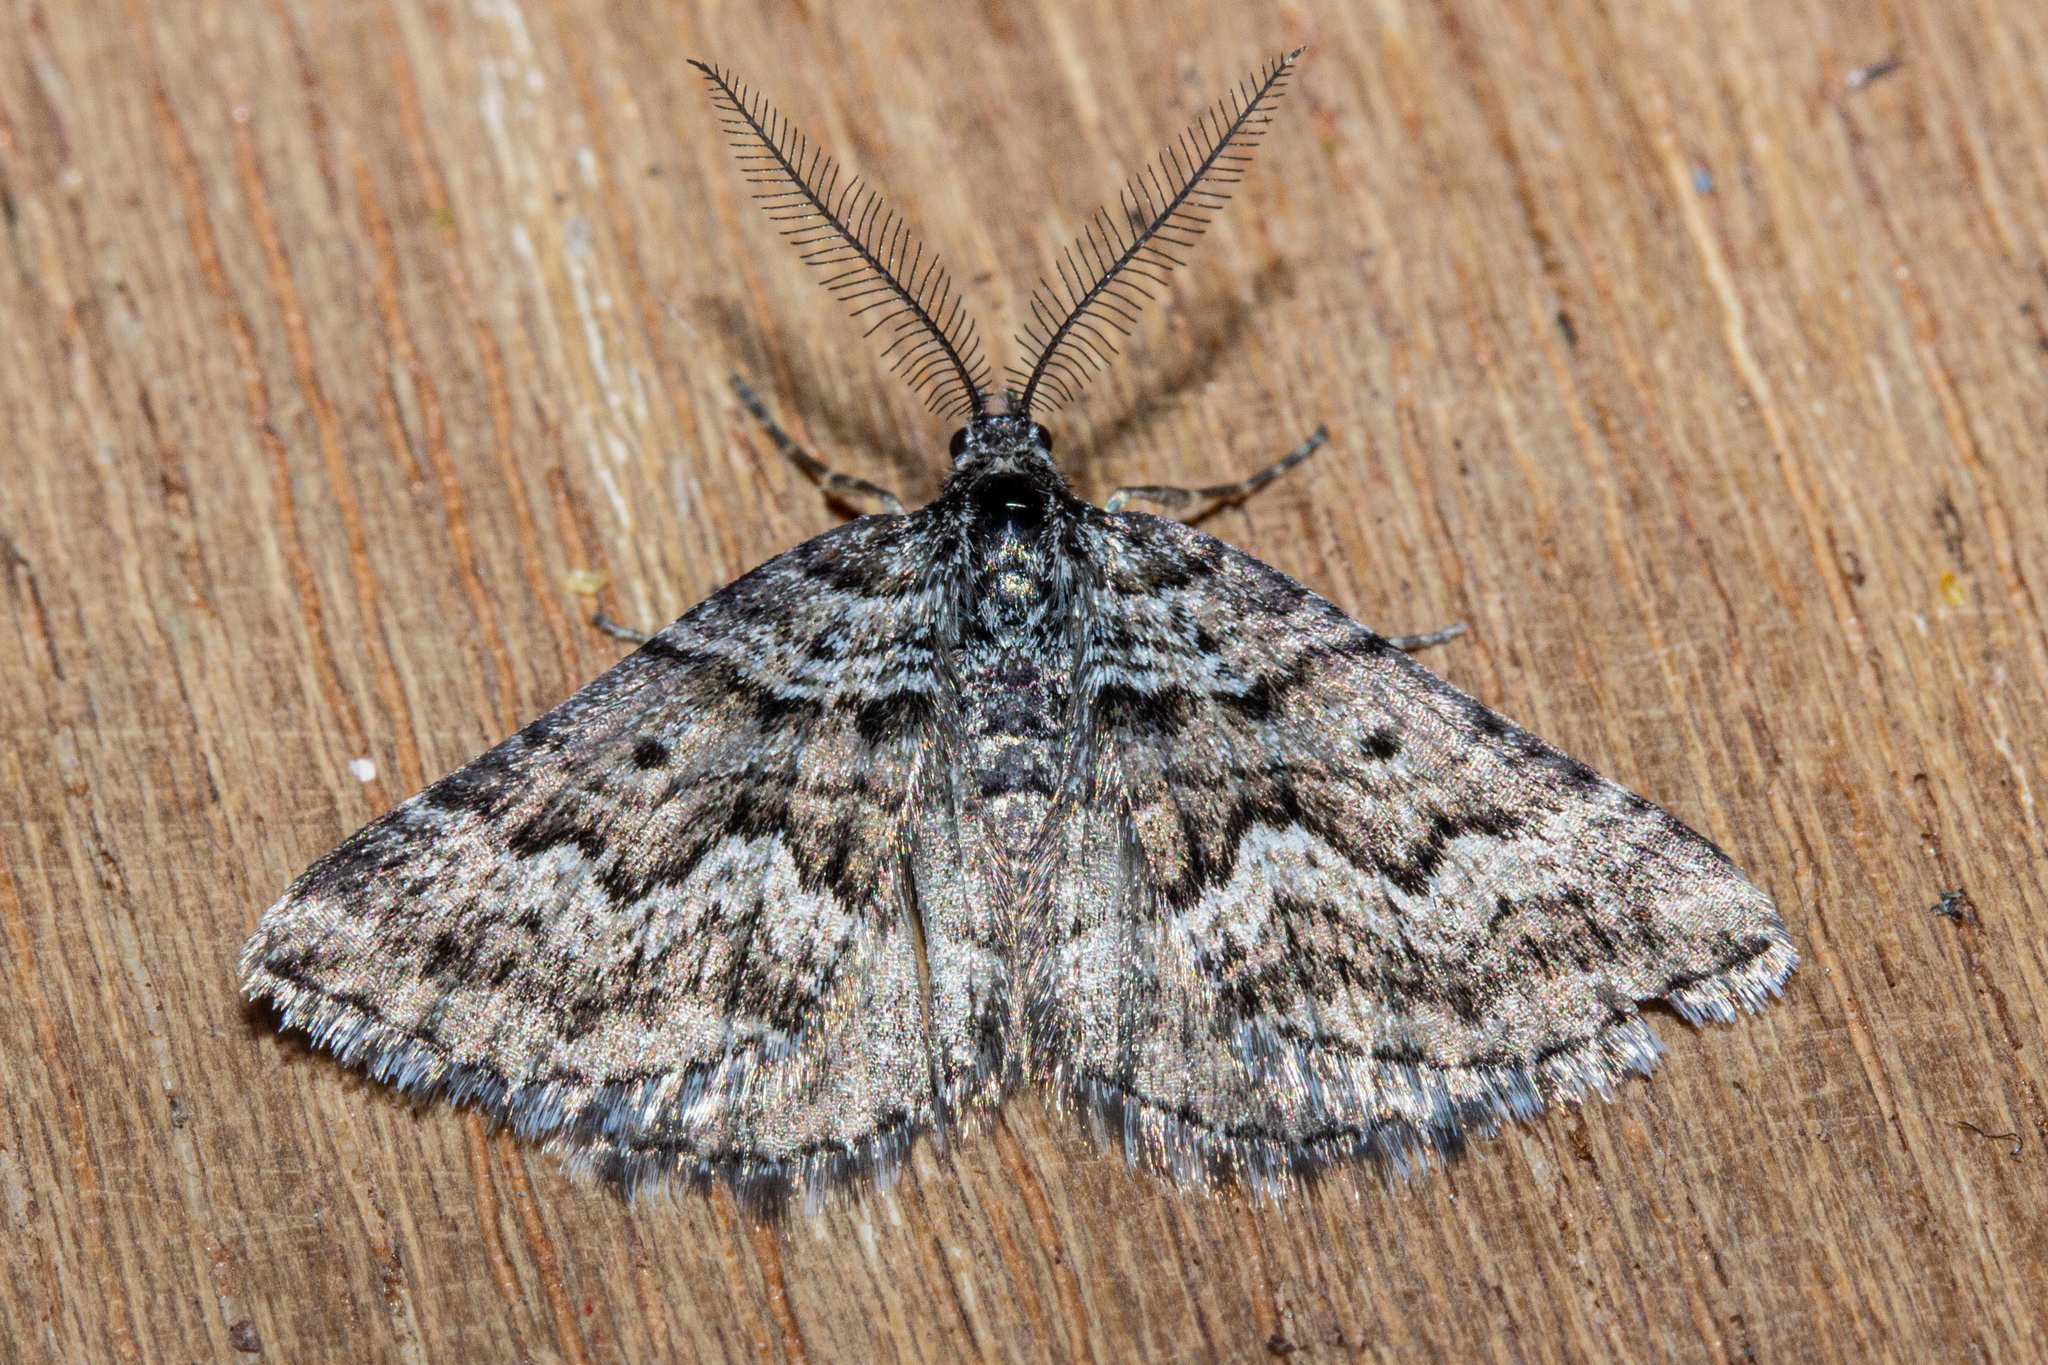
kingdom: Animalia
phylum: Arthropoda
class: Insecta
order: Lepidoptera
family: Geometridae
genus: Aponotoreas
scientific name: Aponotoreas anthracias
